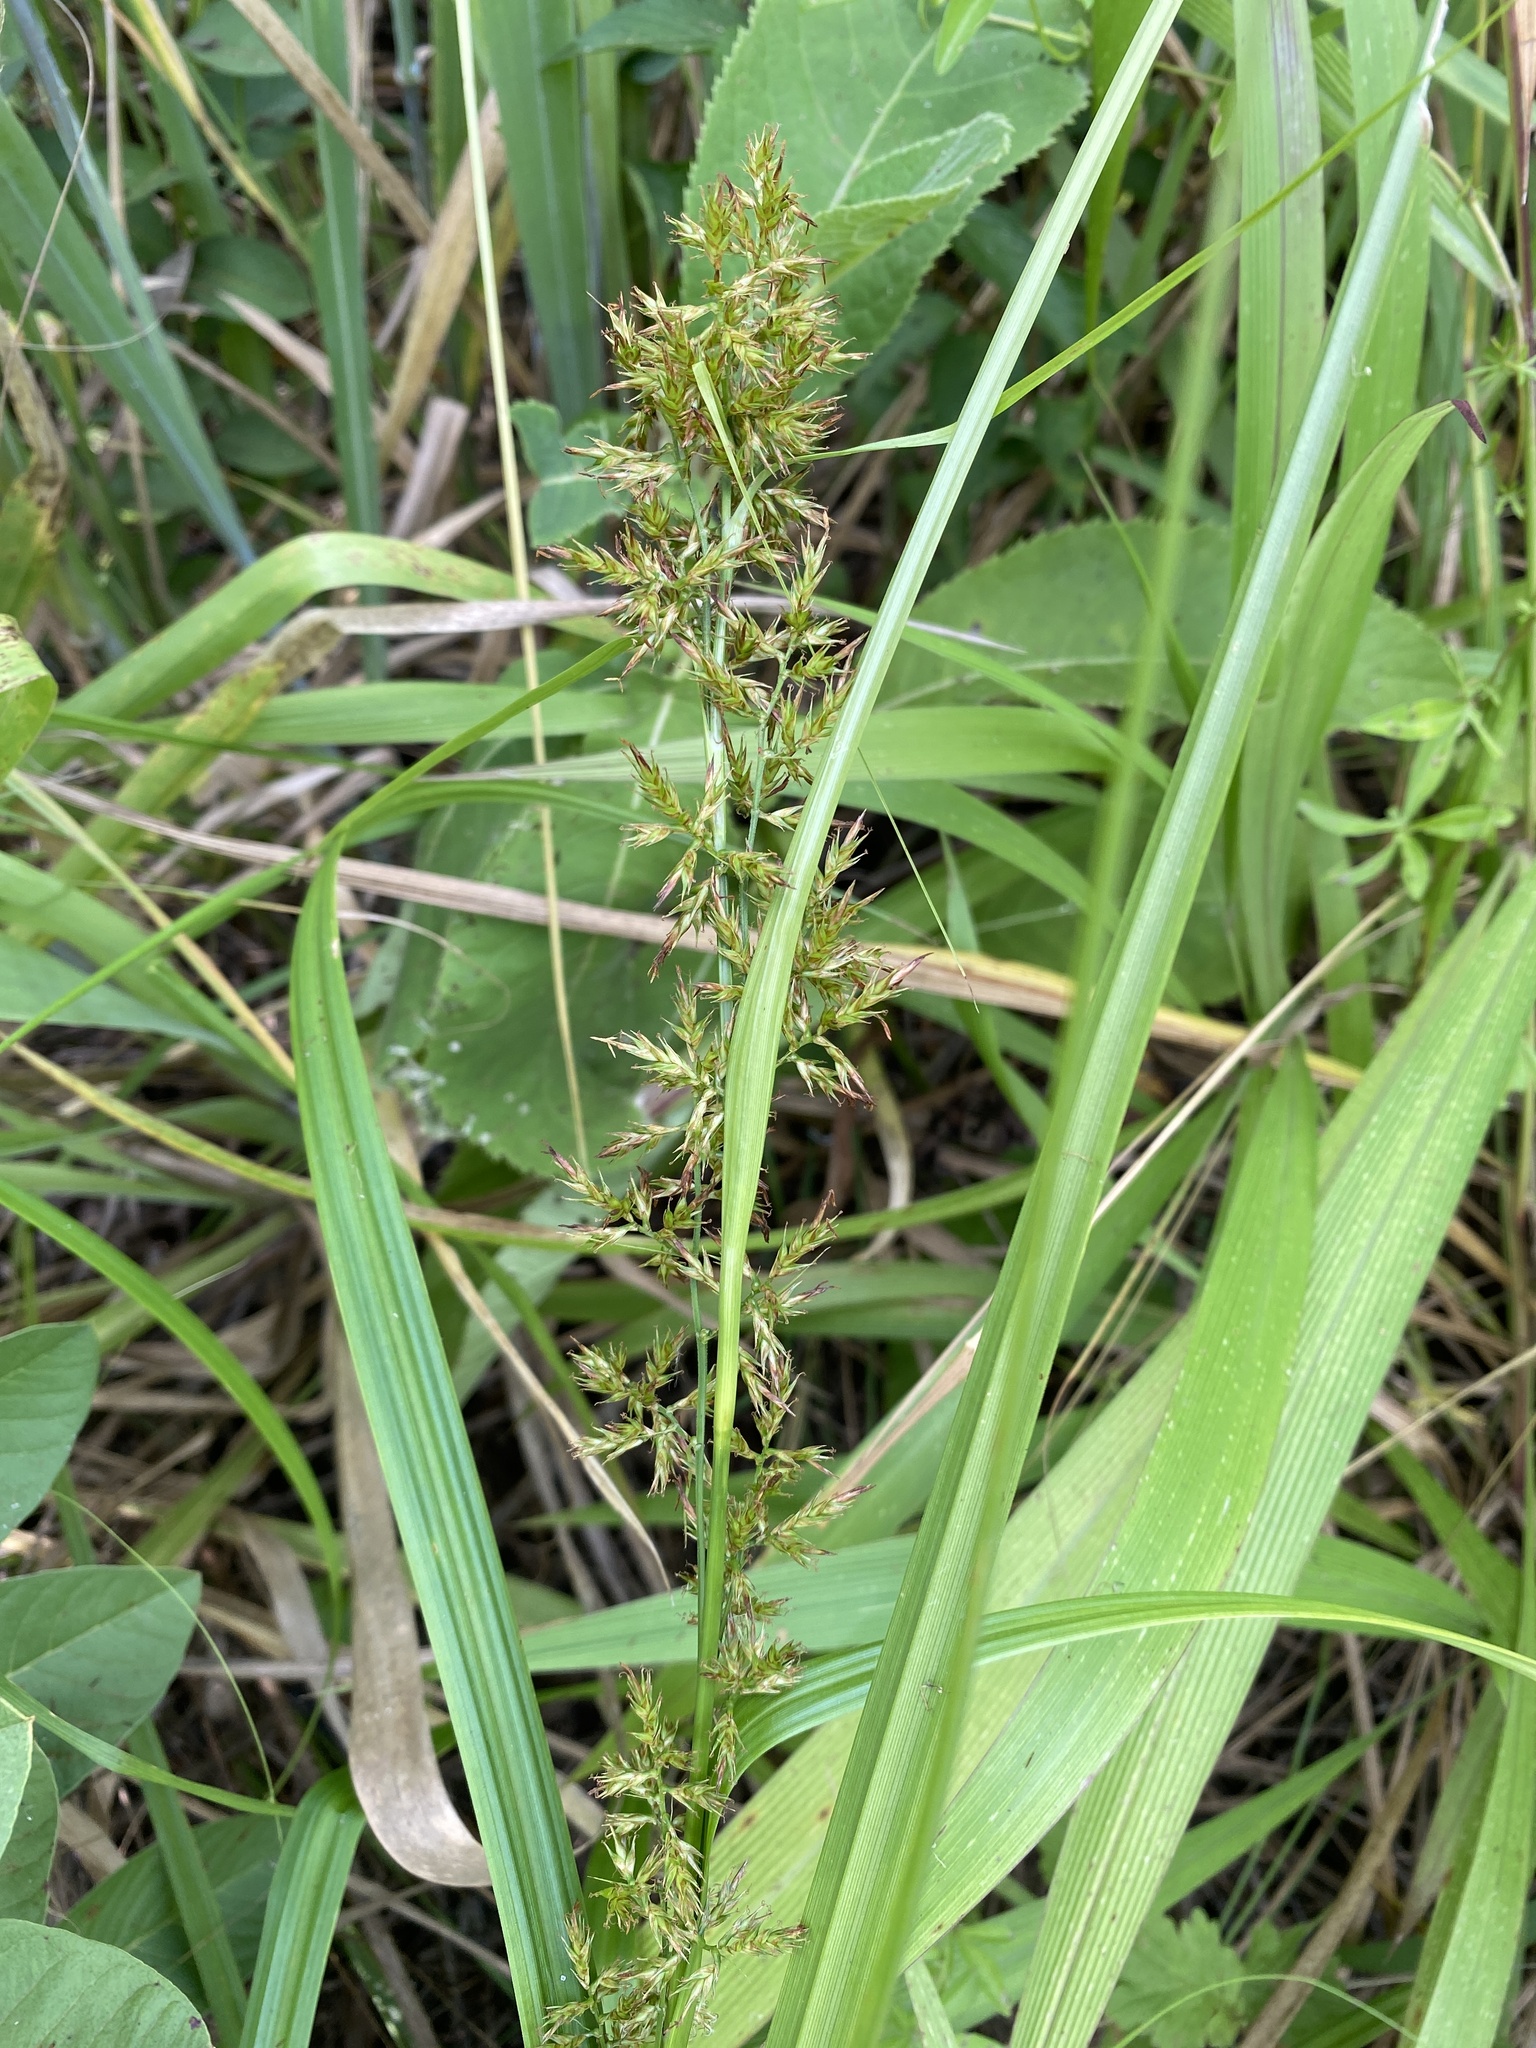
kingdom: Plantae
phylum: Tracheophyta
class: Liliopsida
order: Poales
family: Cyperaceae
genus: Carex
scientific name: Carex spicatopaniculata
